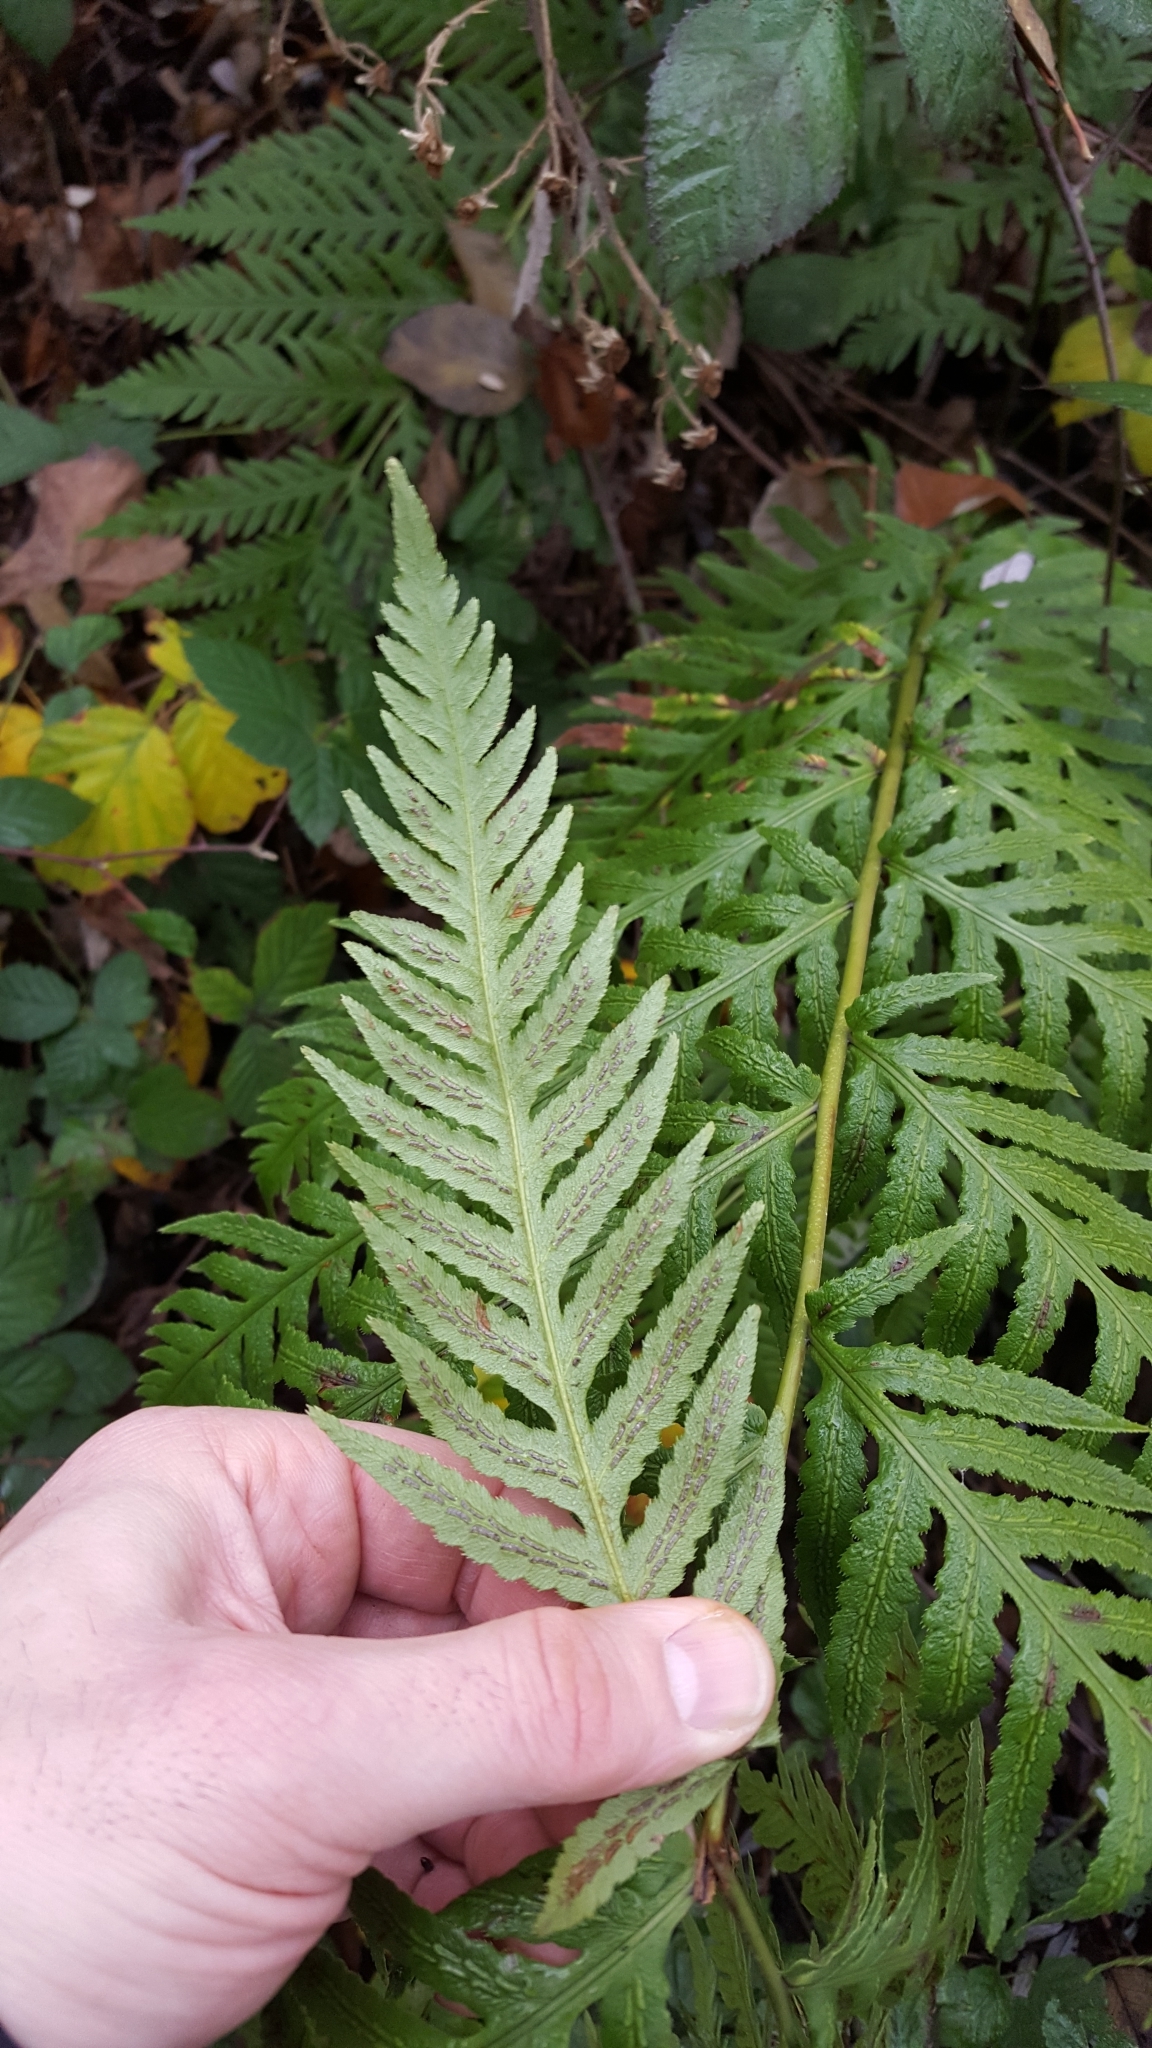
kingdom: Plantae
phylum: Tracheophyta
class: Polypodiopsida
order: Polypodiales
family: Blechnaceae
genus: Woodwardia
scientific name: Woodwardia fimbriata
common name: Giant chain fern
